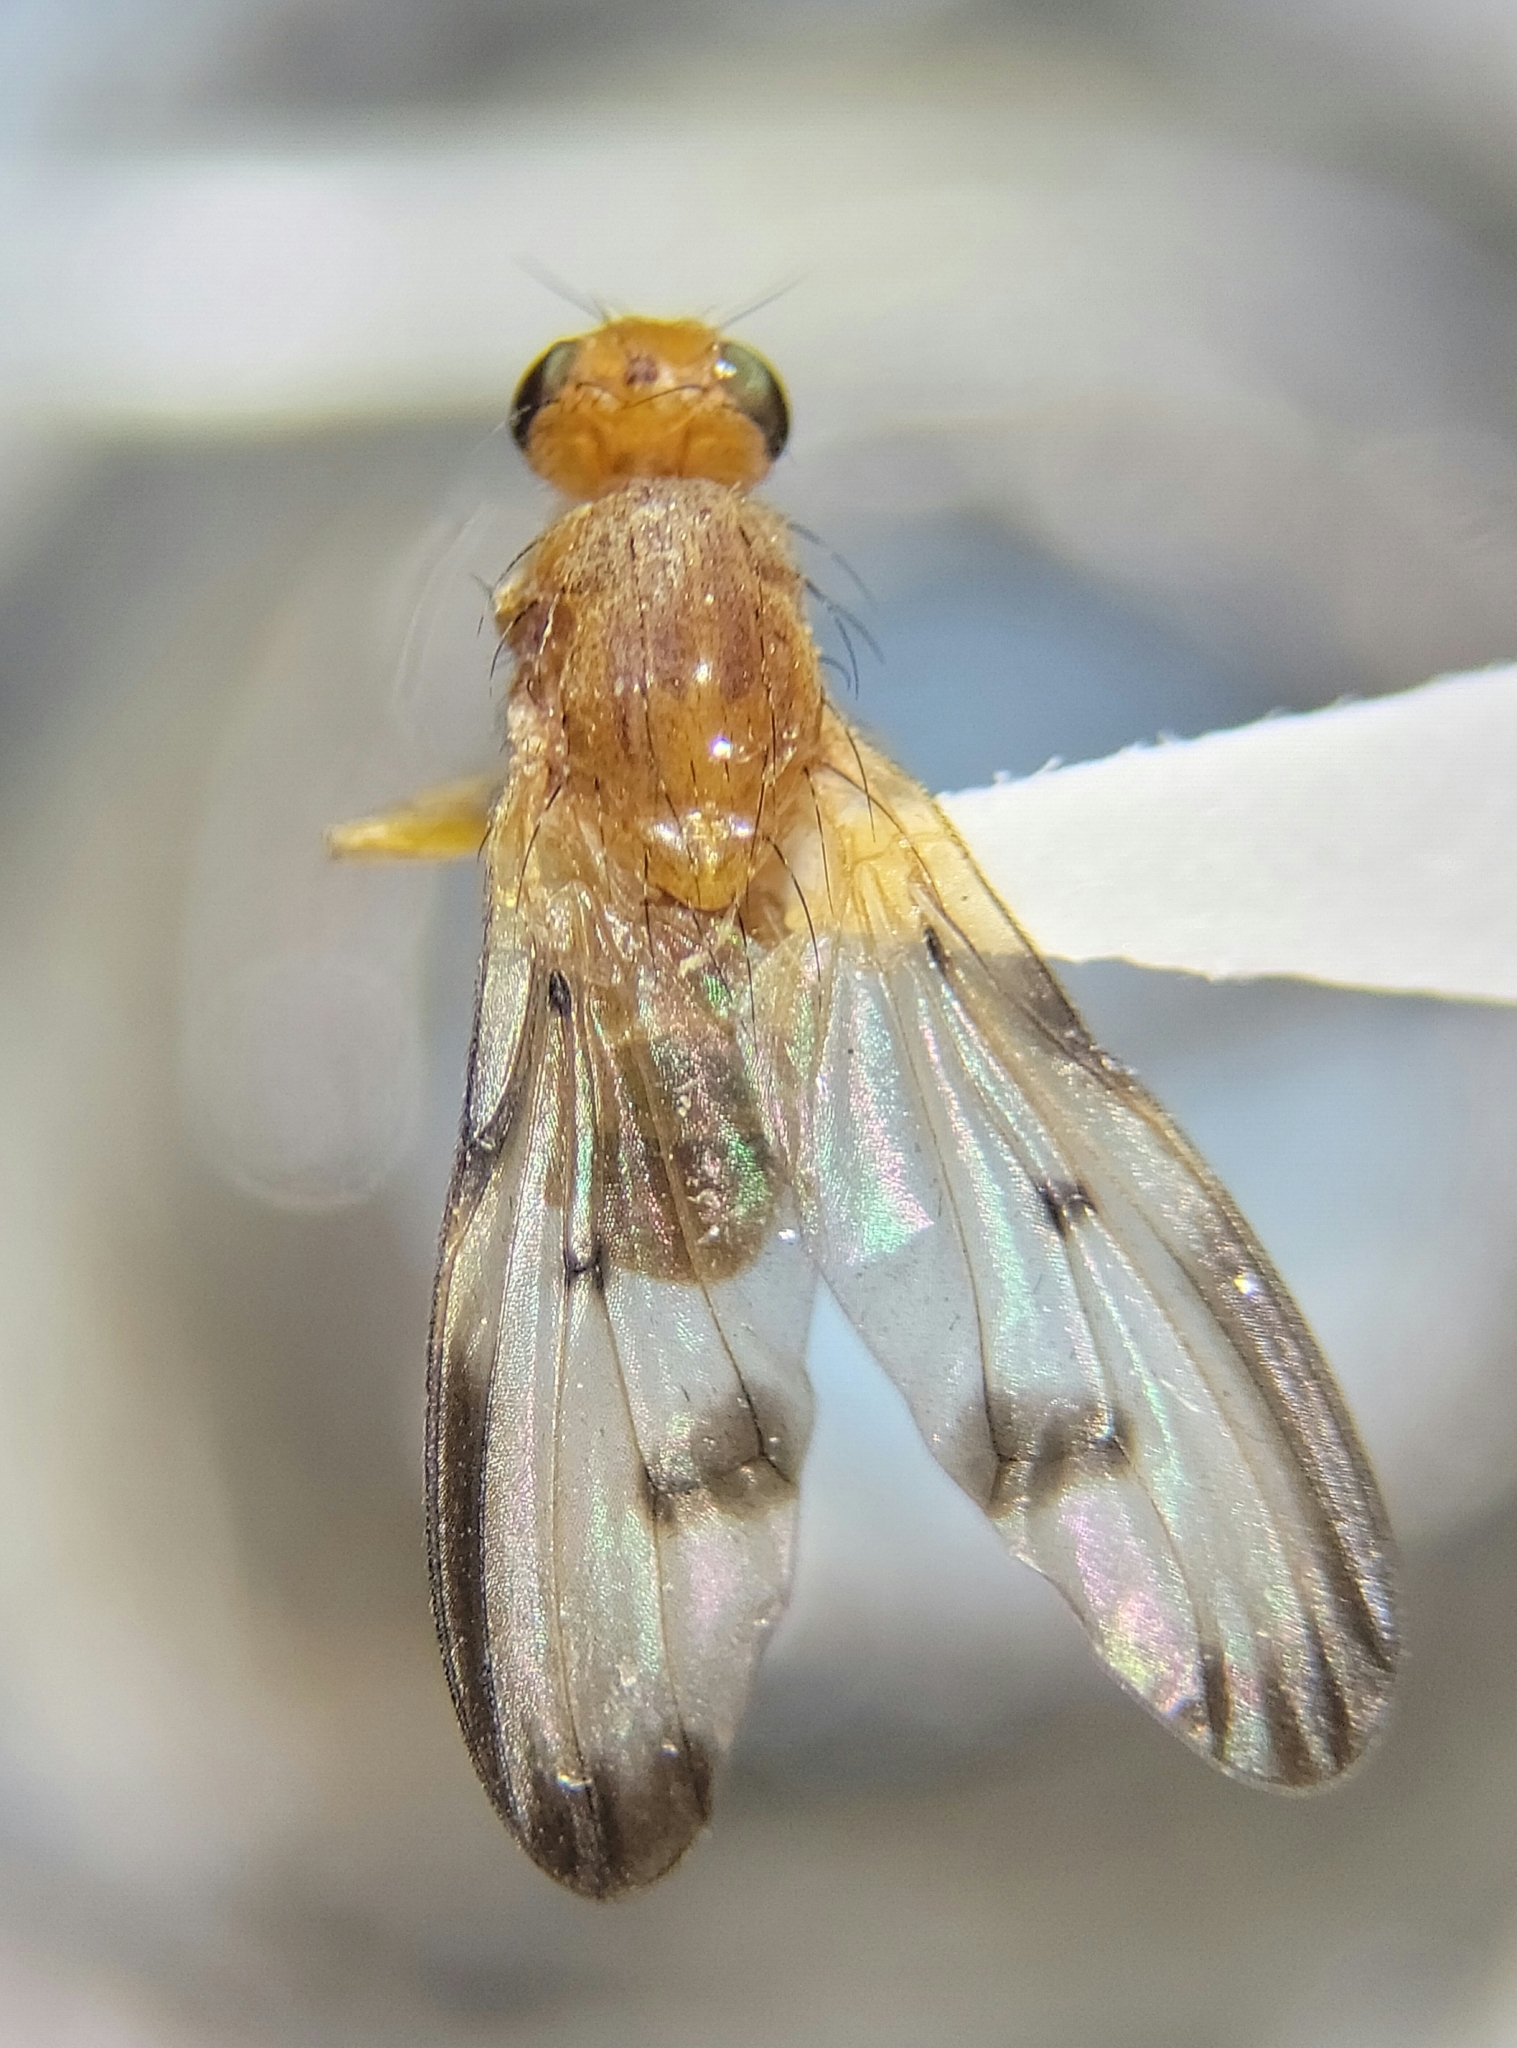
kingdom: Animalia
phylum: Arthropoda
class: Insecta
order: Diptera
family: Pallopteridae
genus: Toxonevra
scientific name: Toxonevra jucunda
